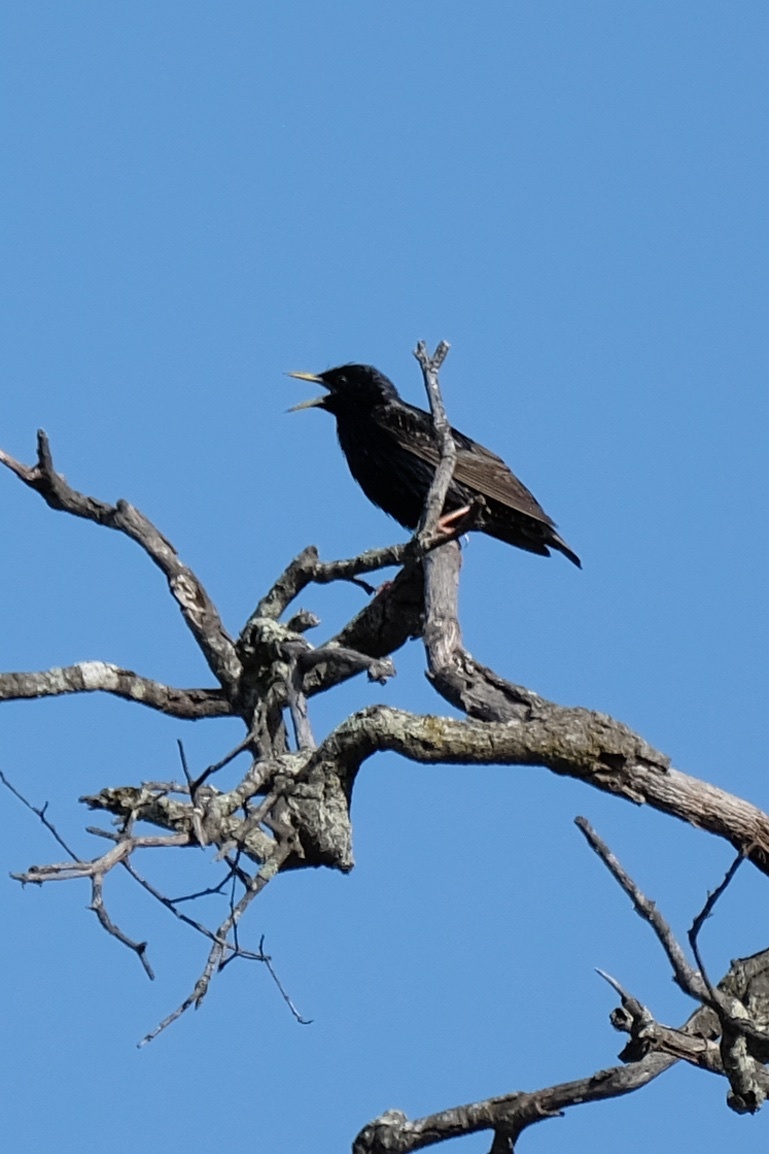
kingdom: Animalia
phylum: Chordata
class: Aves
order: Passeriformes
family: Sturnidae
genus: Sturnus
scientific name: Sturnus vulgaris
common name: Common starling
